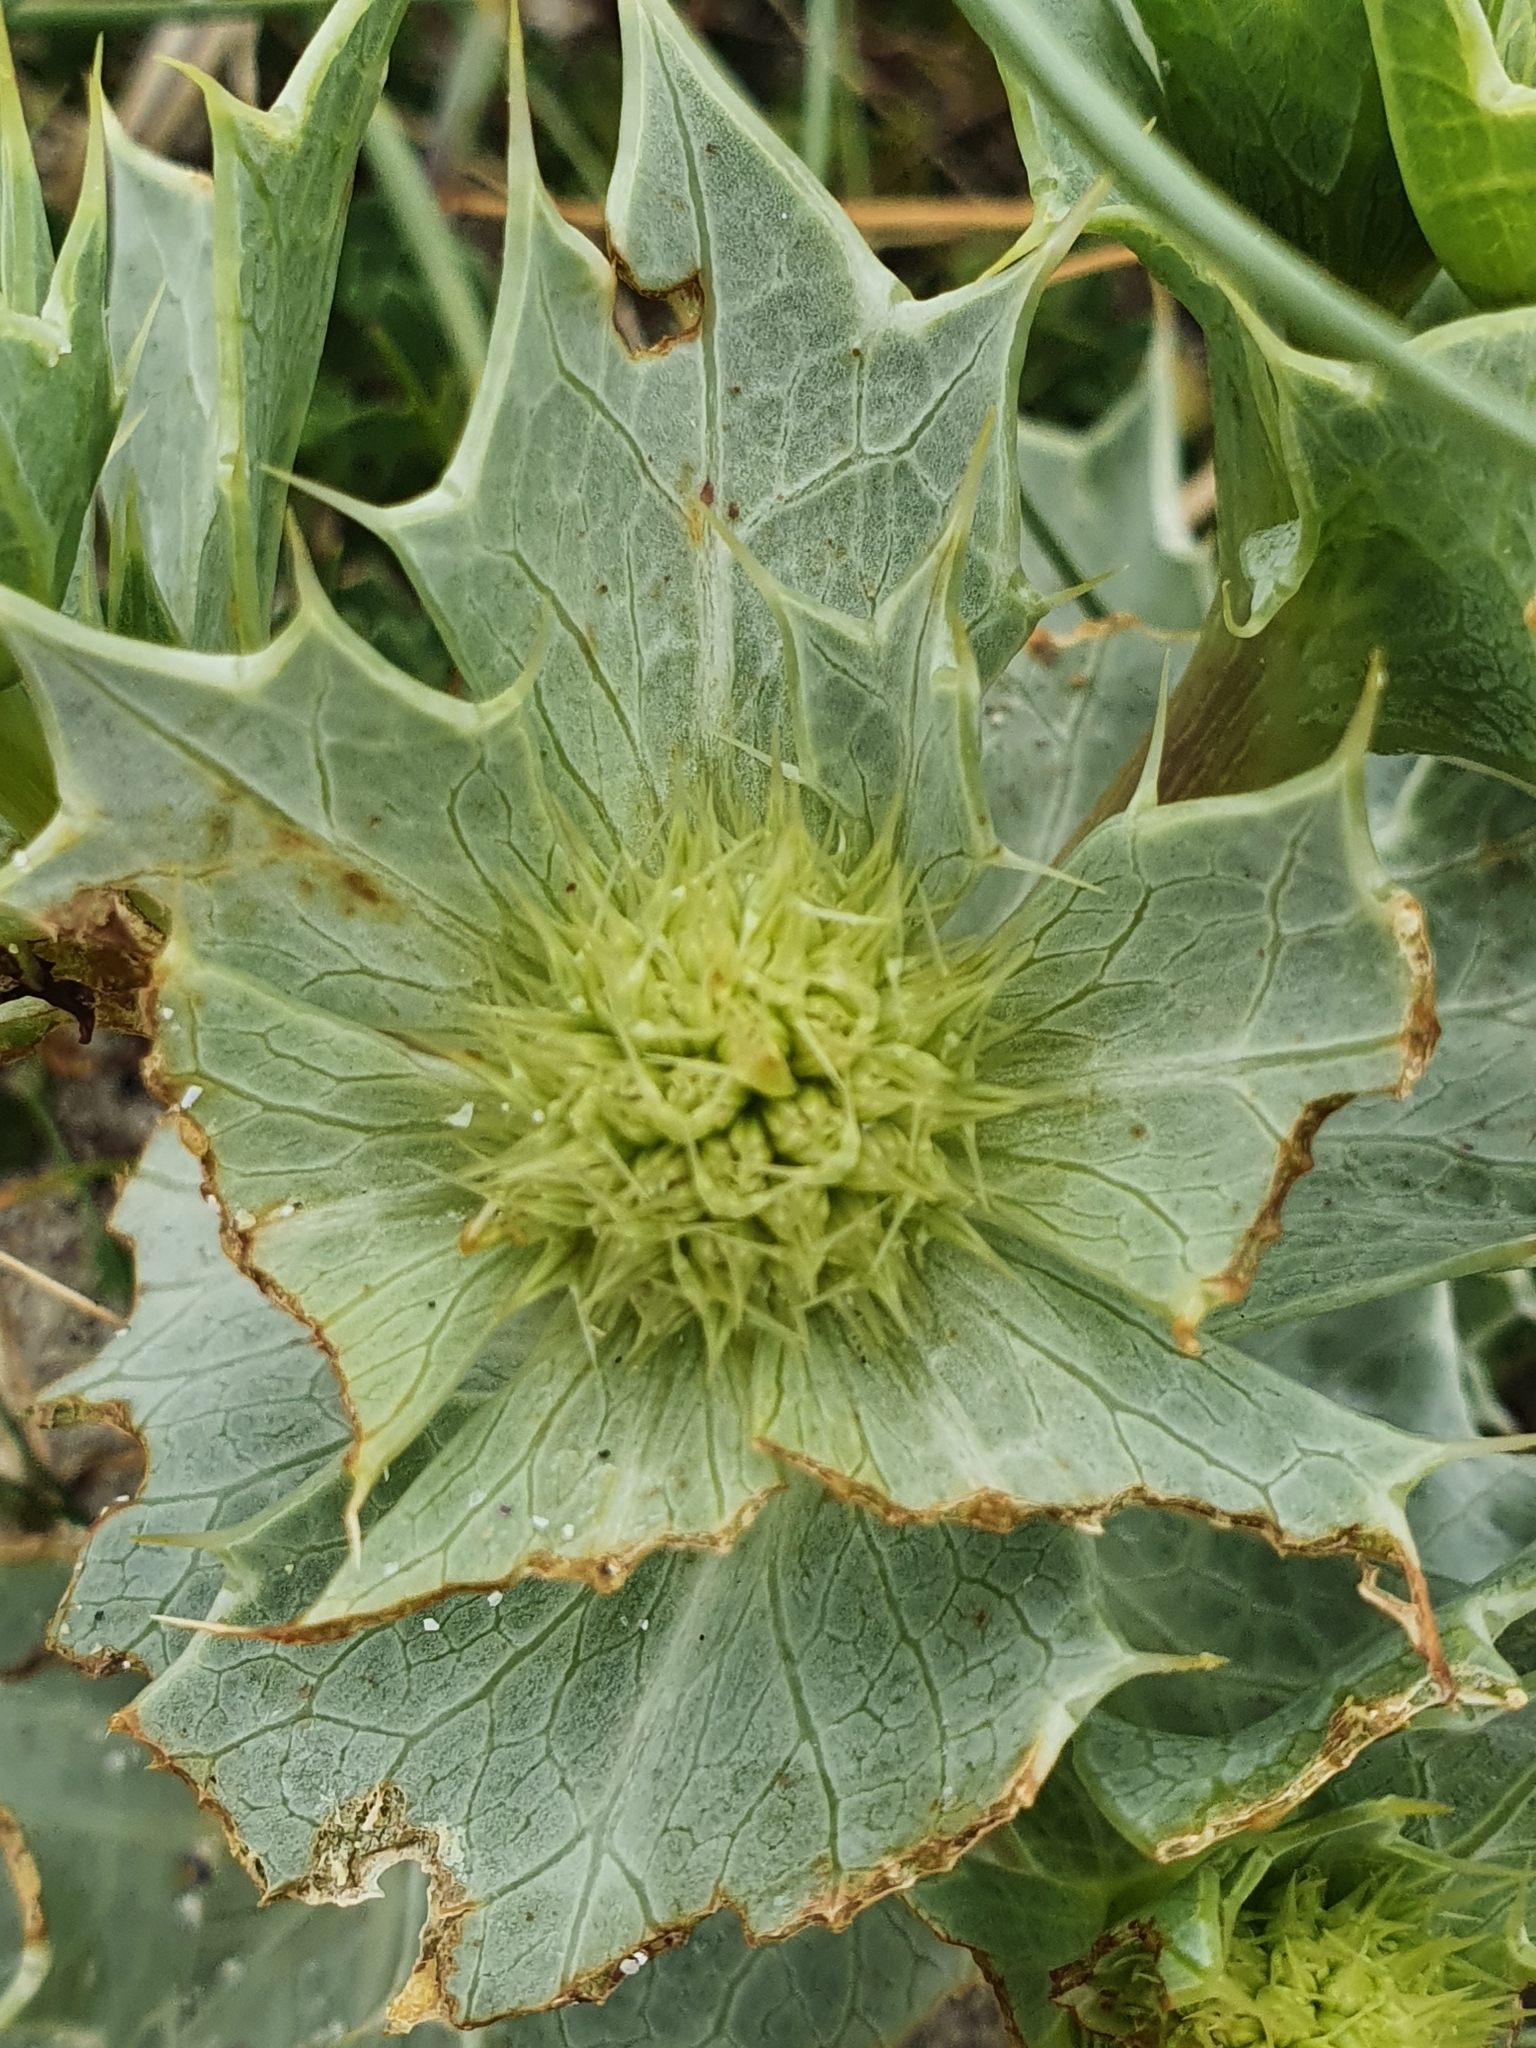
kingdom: Plantae
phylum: Tracheophyta
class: Magnoliopsida
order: Apiales
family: Apiaceae
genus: Eryngium
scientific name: Eryngium maritimum
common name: Sea-holly
